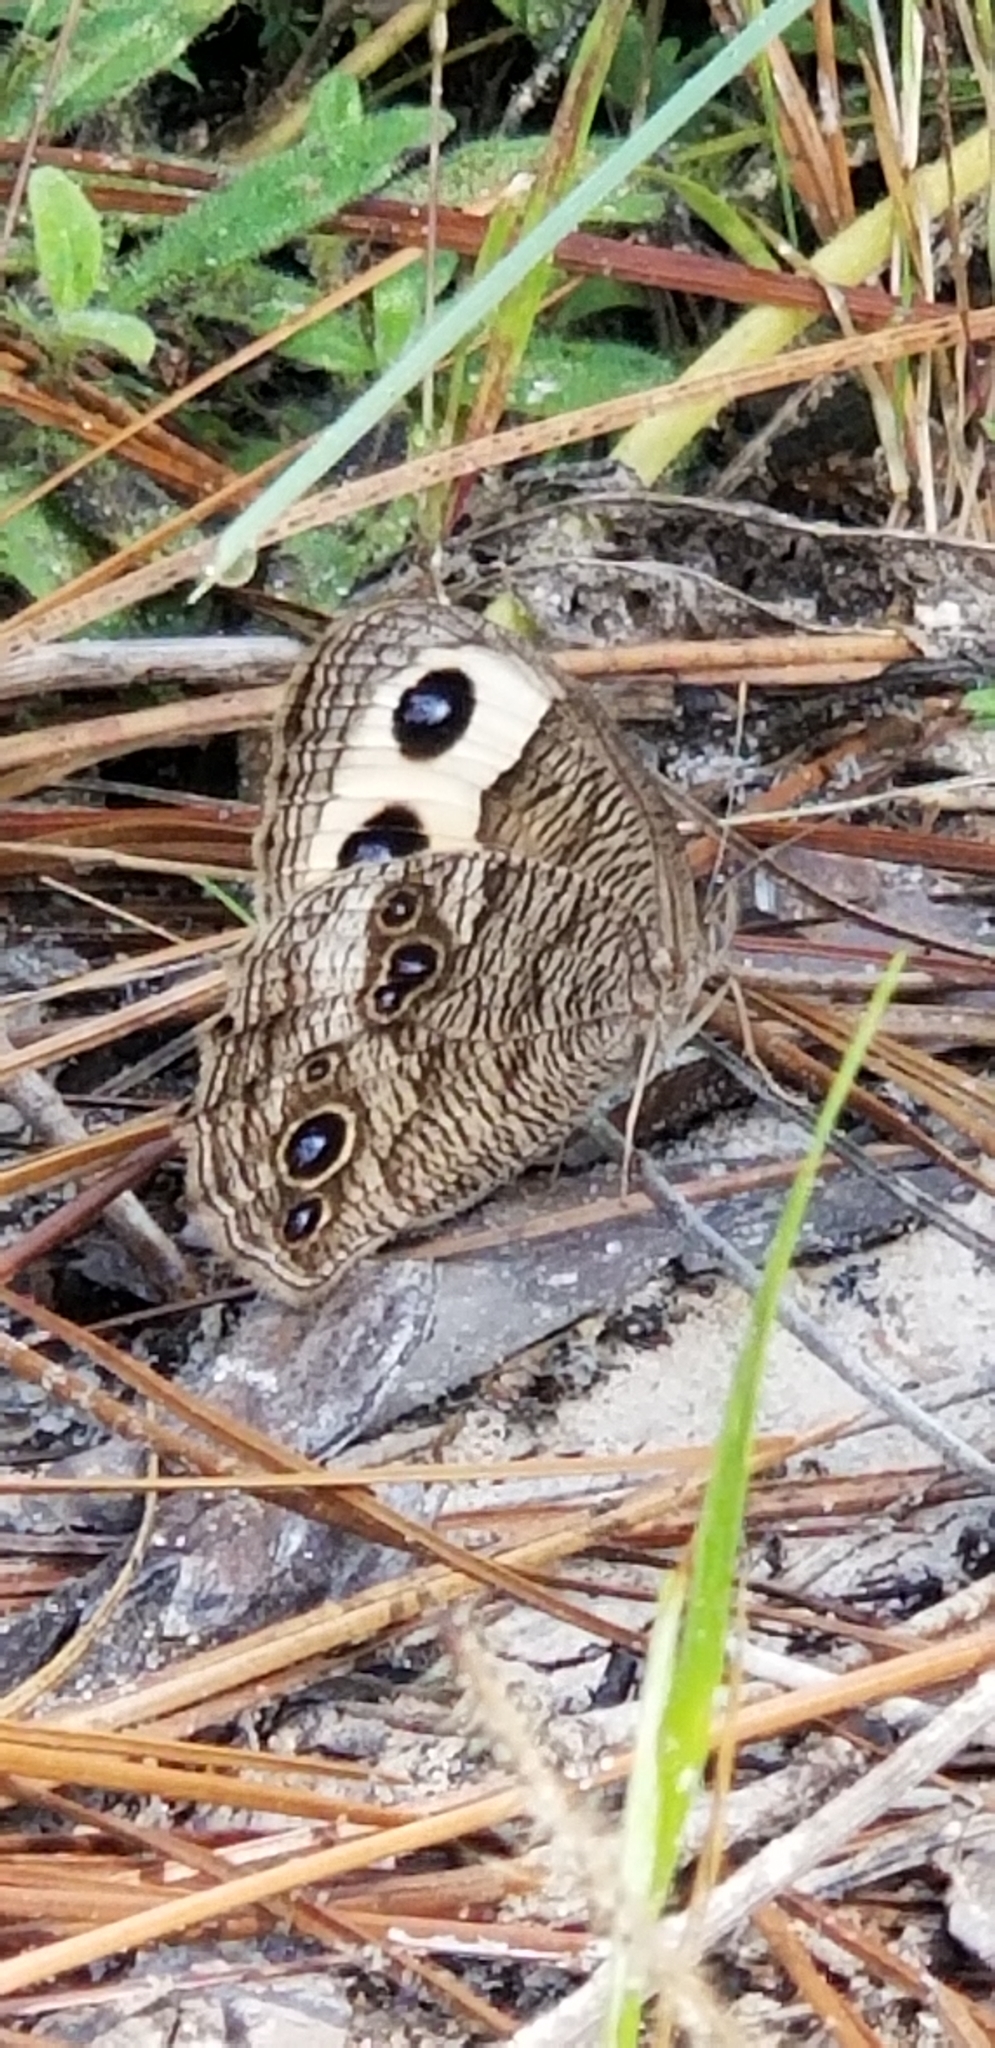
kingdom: Animalia
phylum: Arthropoda
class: Insecta
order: Lepidoptera
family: Nymphalidae
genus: Cercyonis
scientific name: Cercyonis pegala
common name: Common wood-nymph
